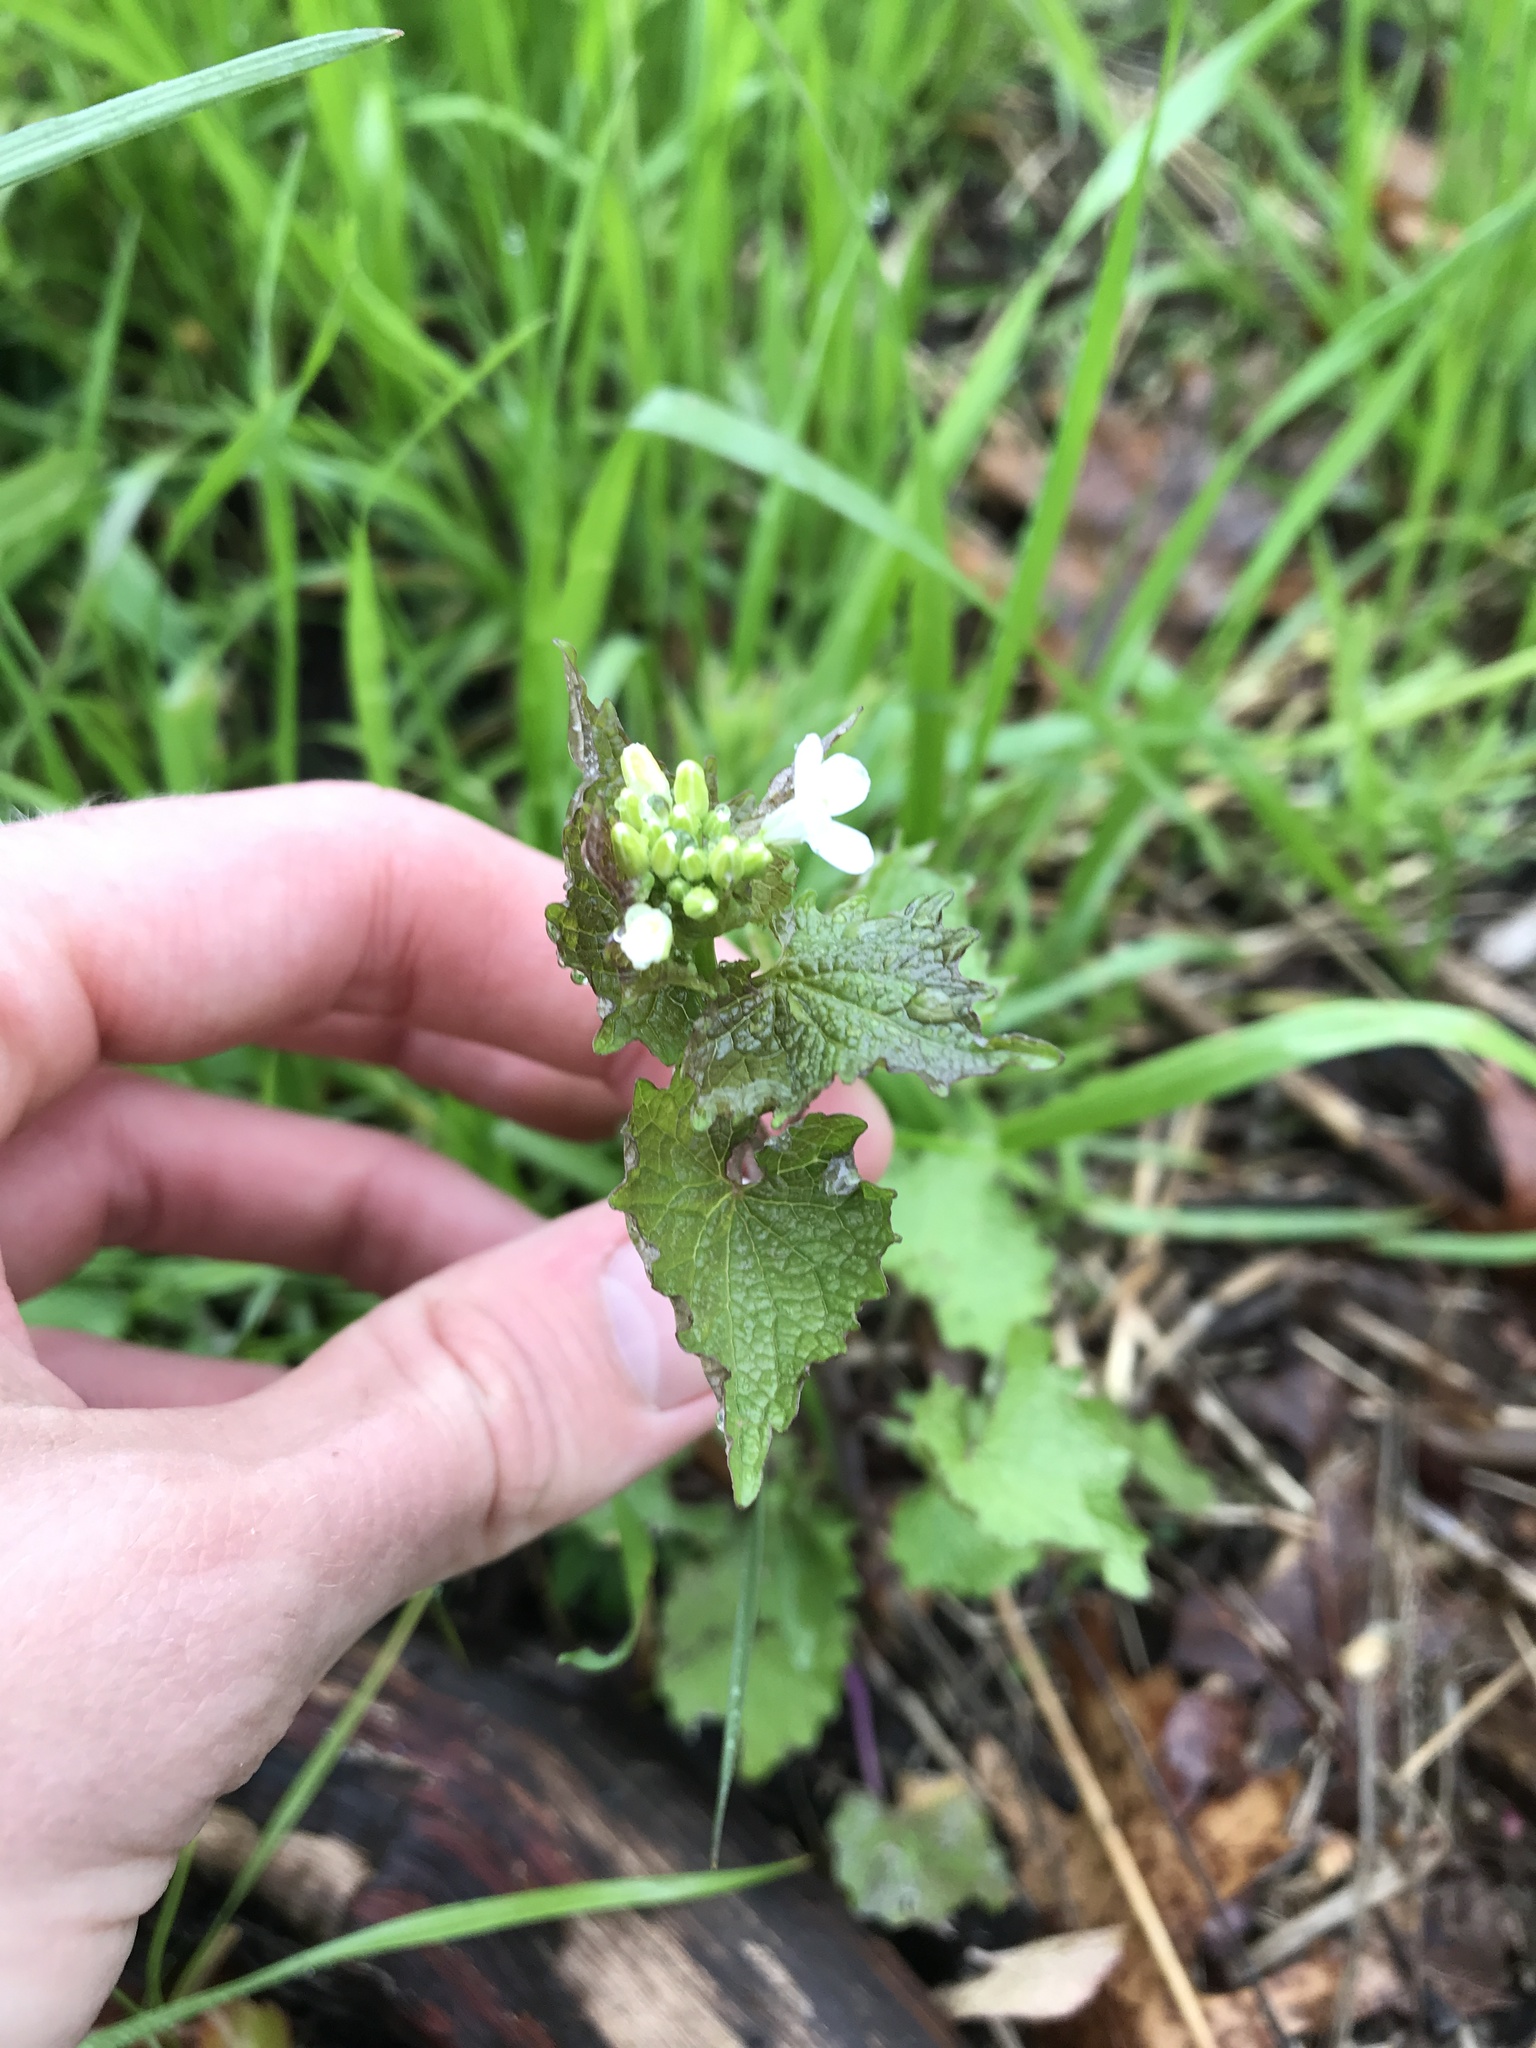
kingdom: Plantae
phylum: Tracheophyta
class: Magnoliopsida
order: Brassicales
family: Brassicaceae
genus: Alliaria
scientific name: Alliaria petiolata
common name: Garlic mustard
